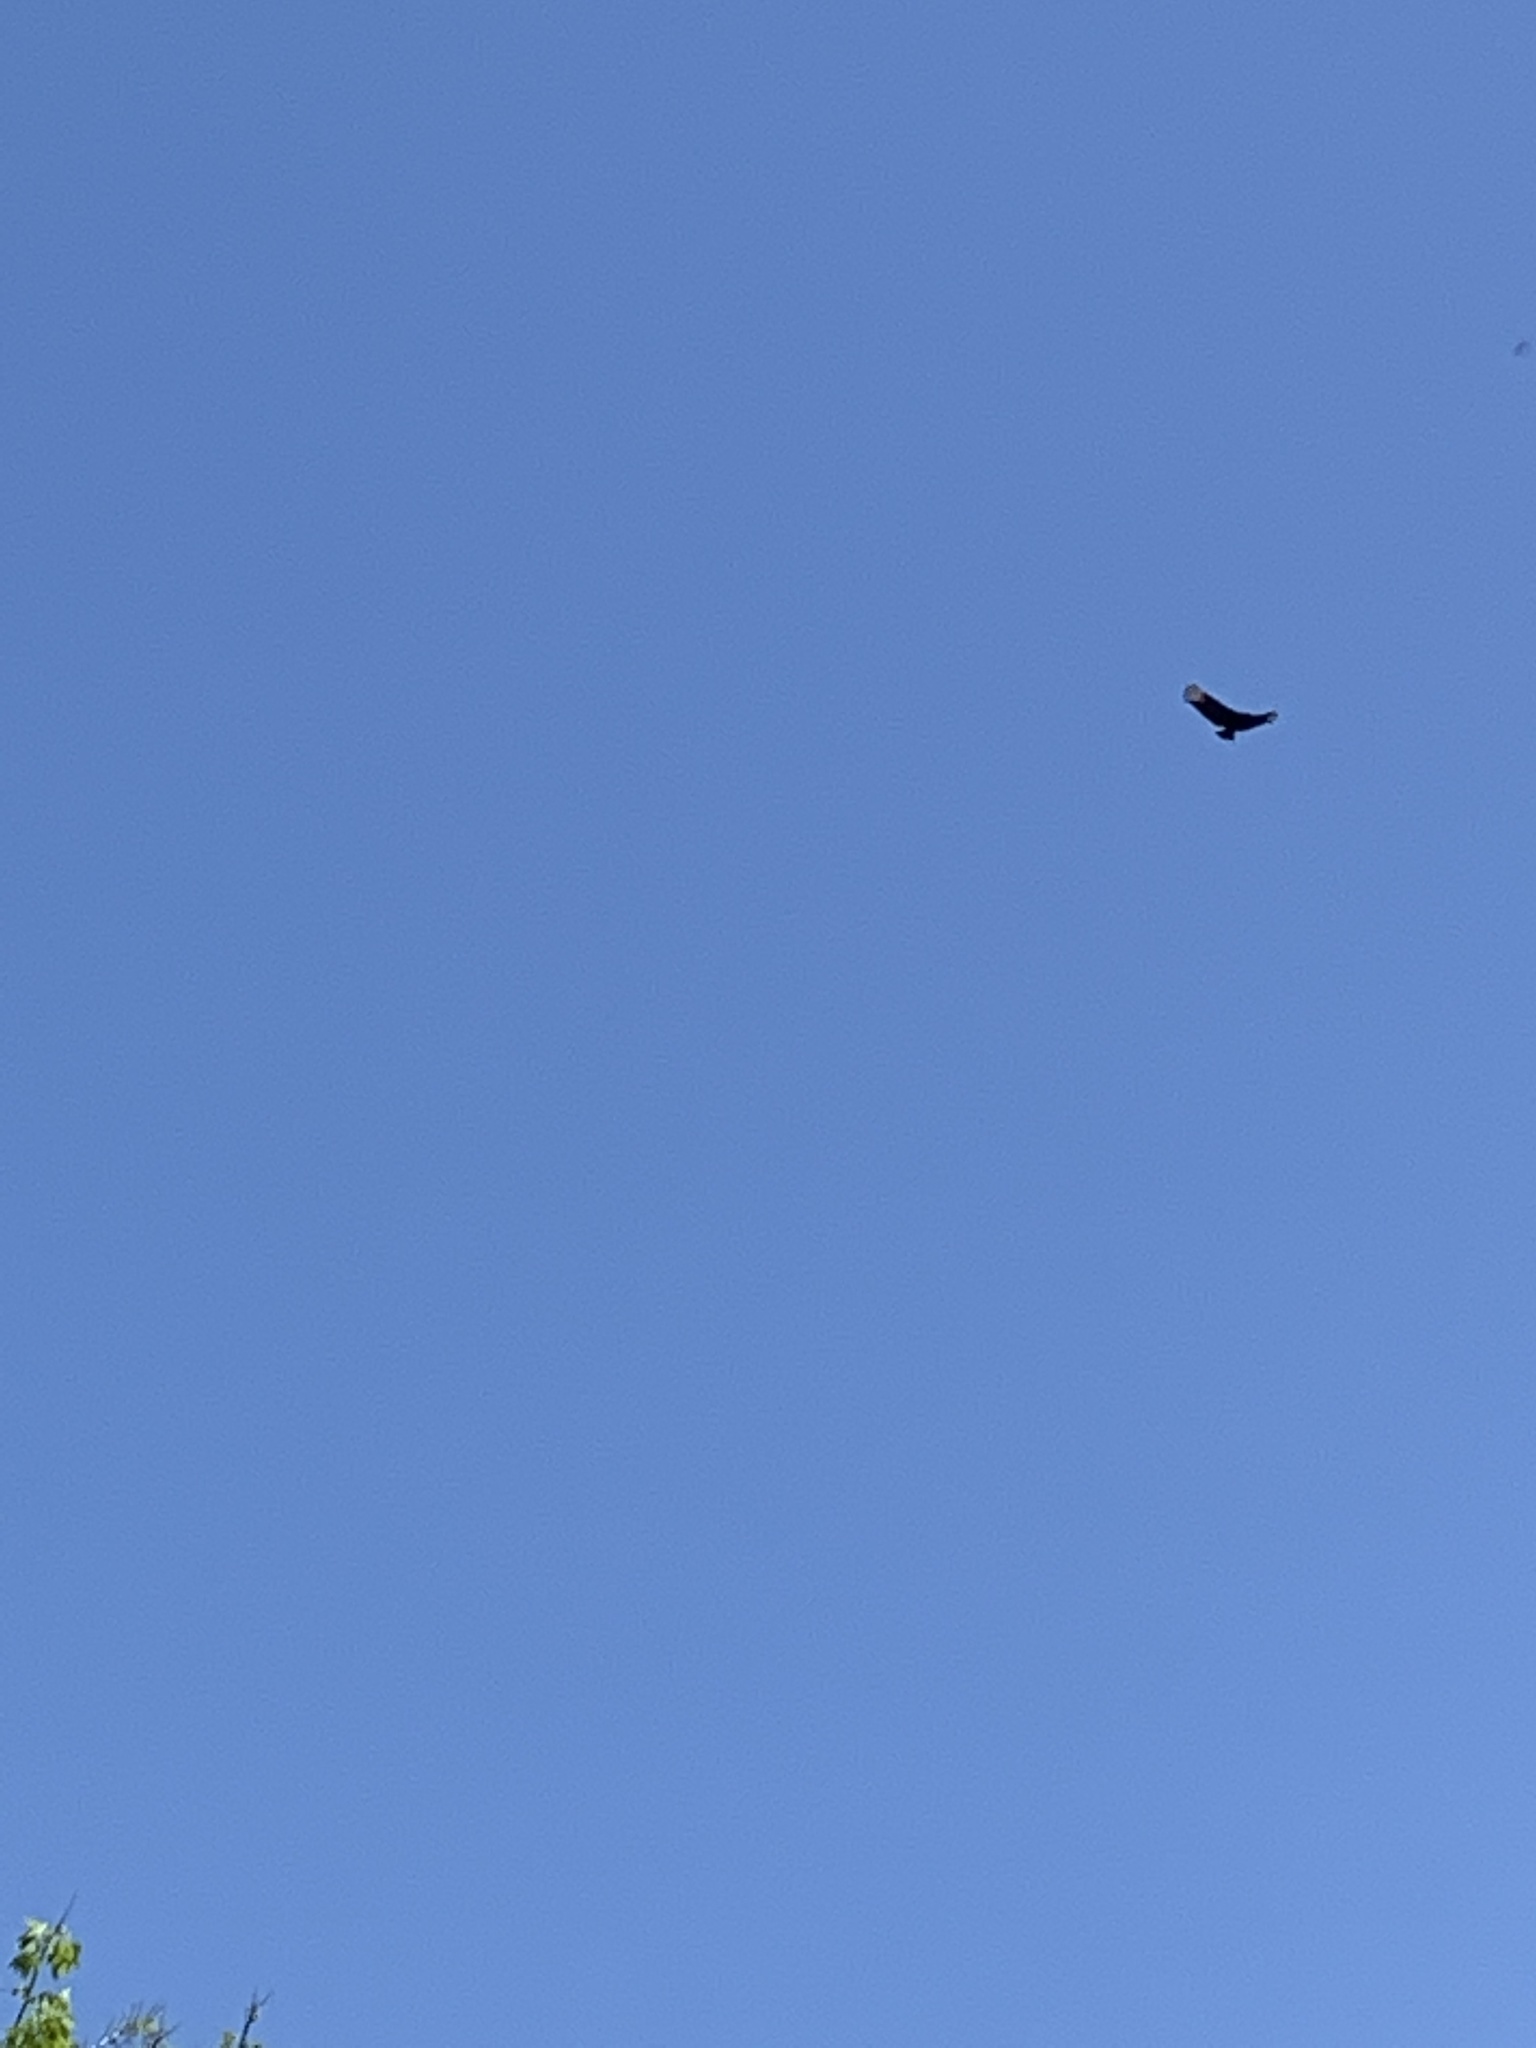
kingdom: Animalia
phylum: Chordata
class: Aves
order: Accipitriformes
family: Cathartidae
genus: Coragyps
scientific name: Coragyps atratus
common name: Black vulture
